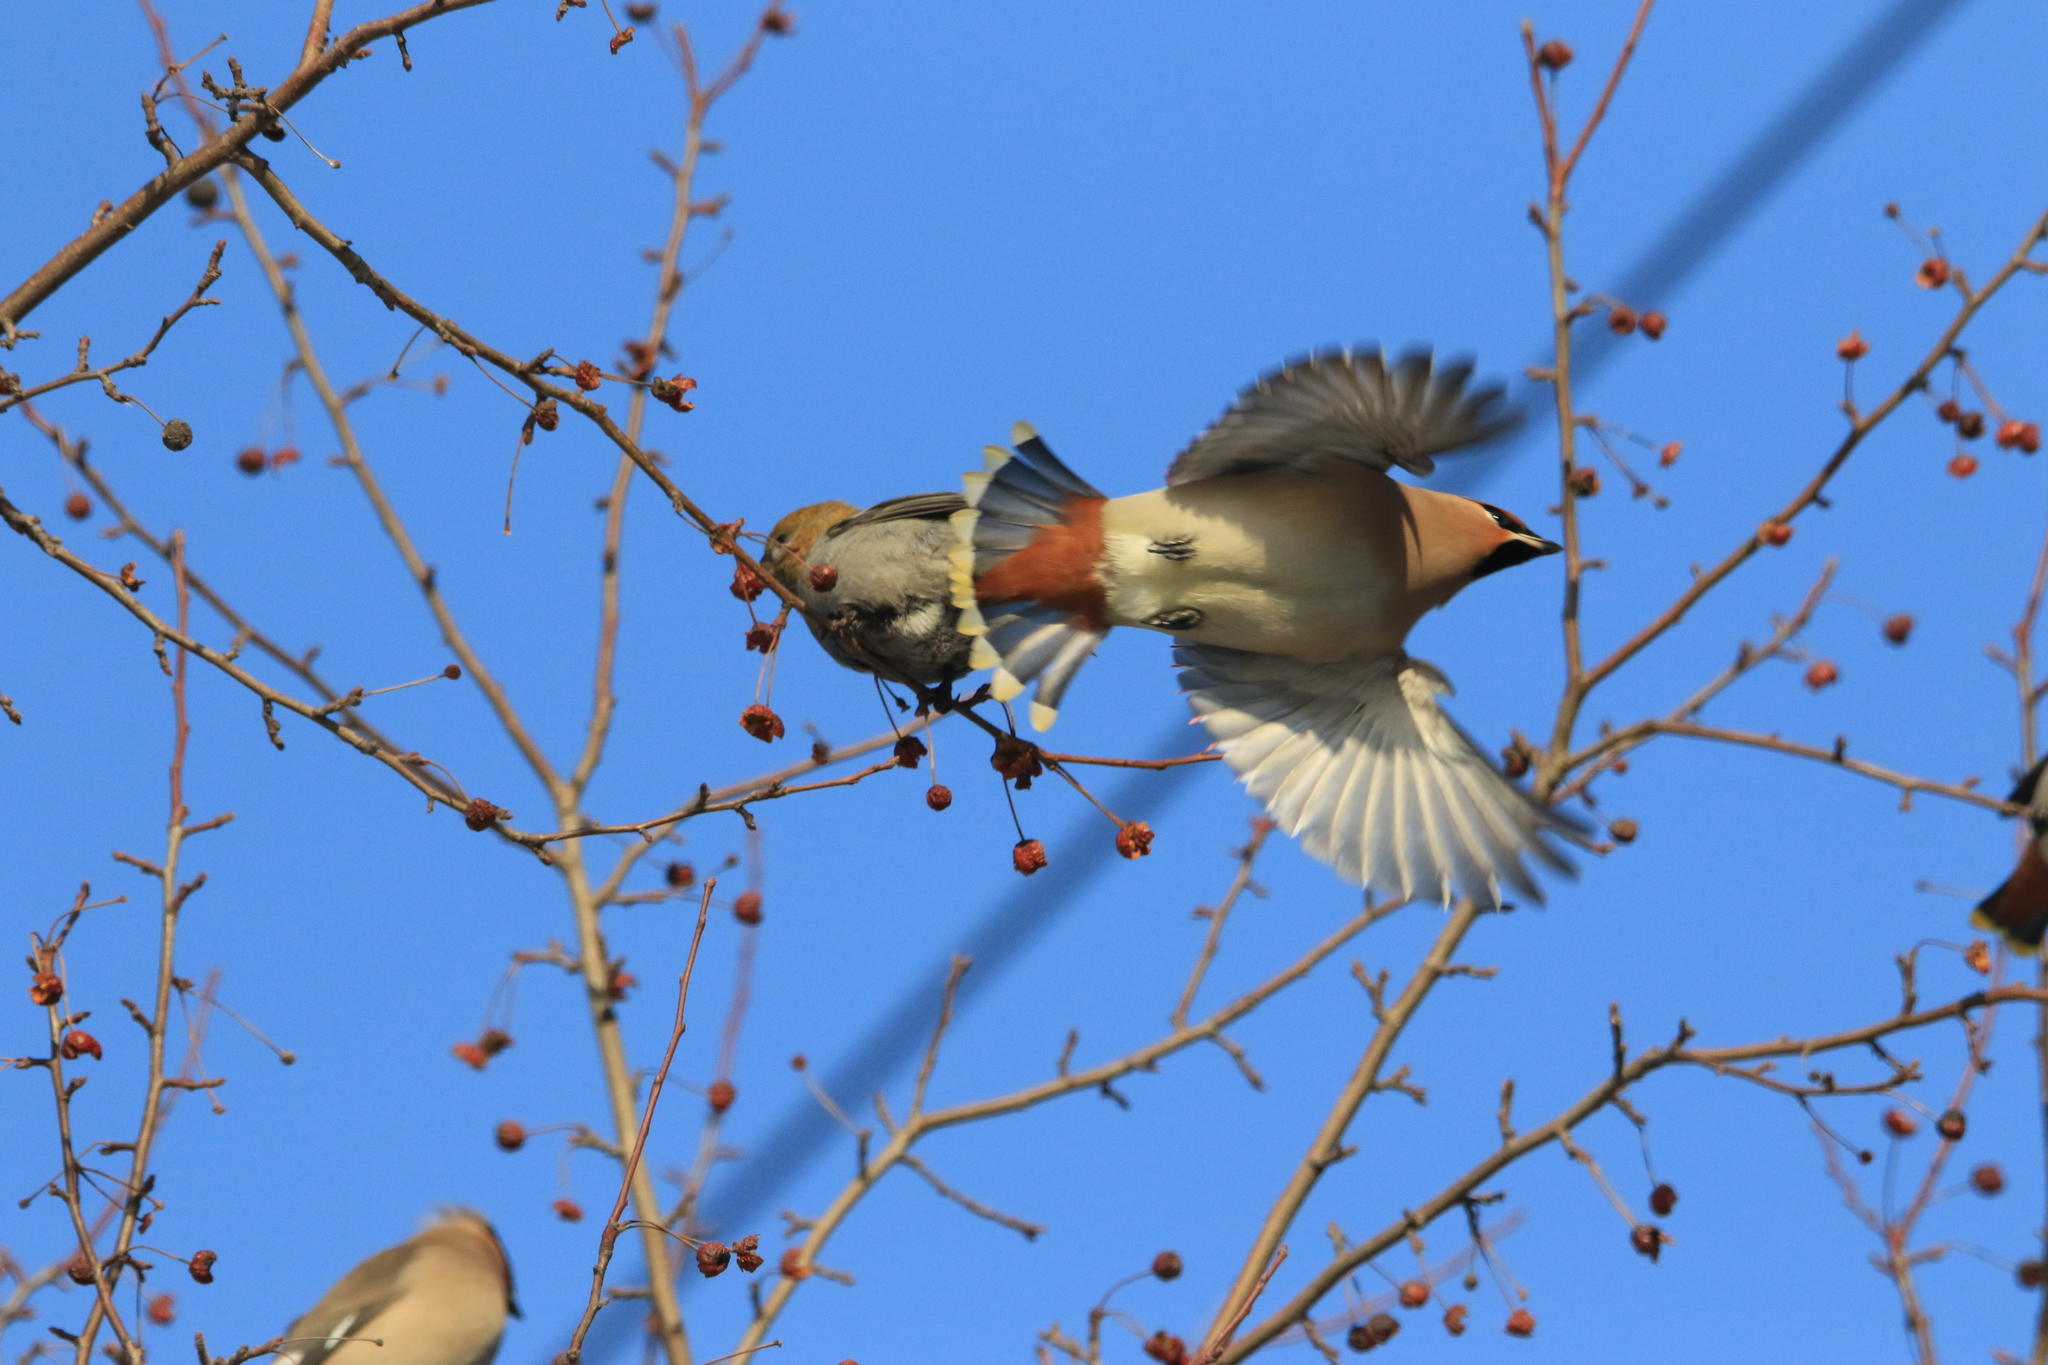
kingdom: Animalia
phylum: Chordata
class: Aves
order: Passeriformes
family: Bombycillidae
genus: Bombycilla
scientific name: Bombycilla garrulus
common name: Bohemian waxwing
